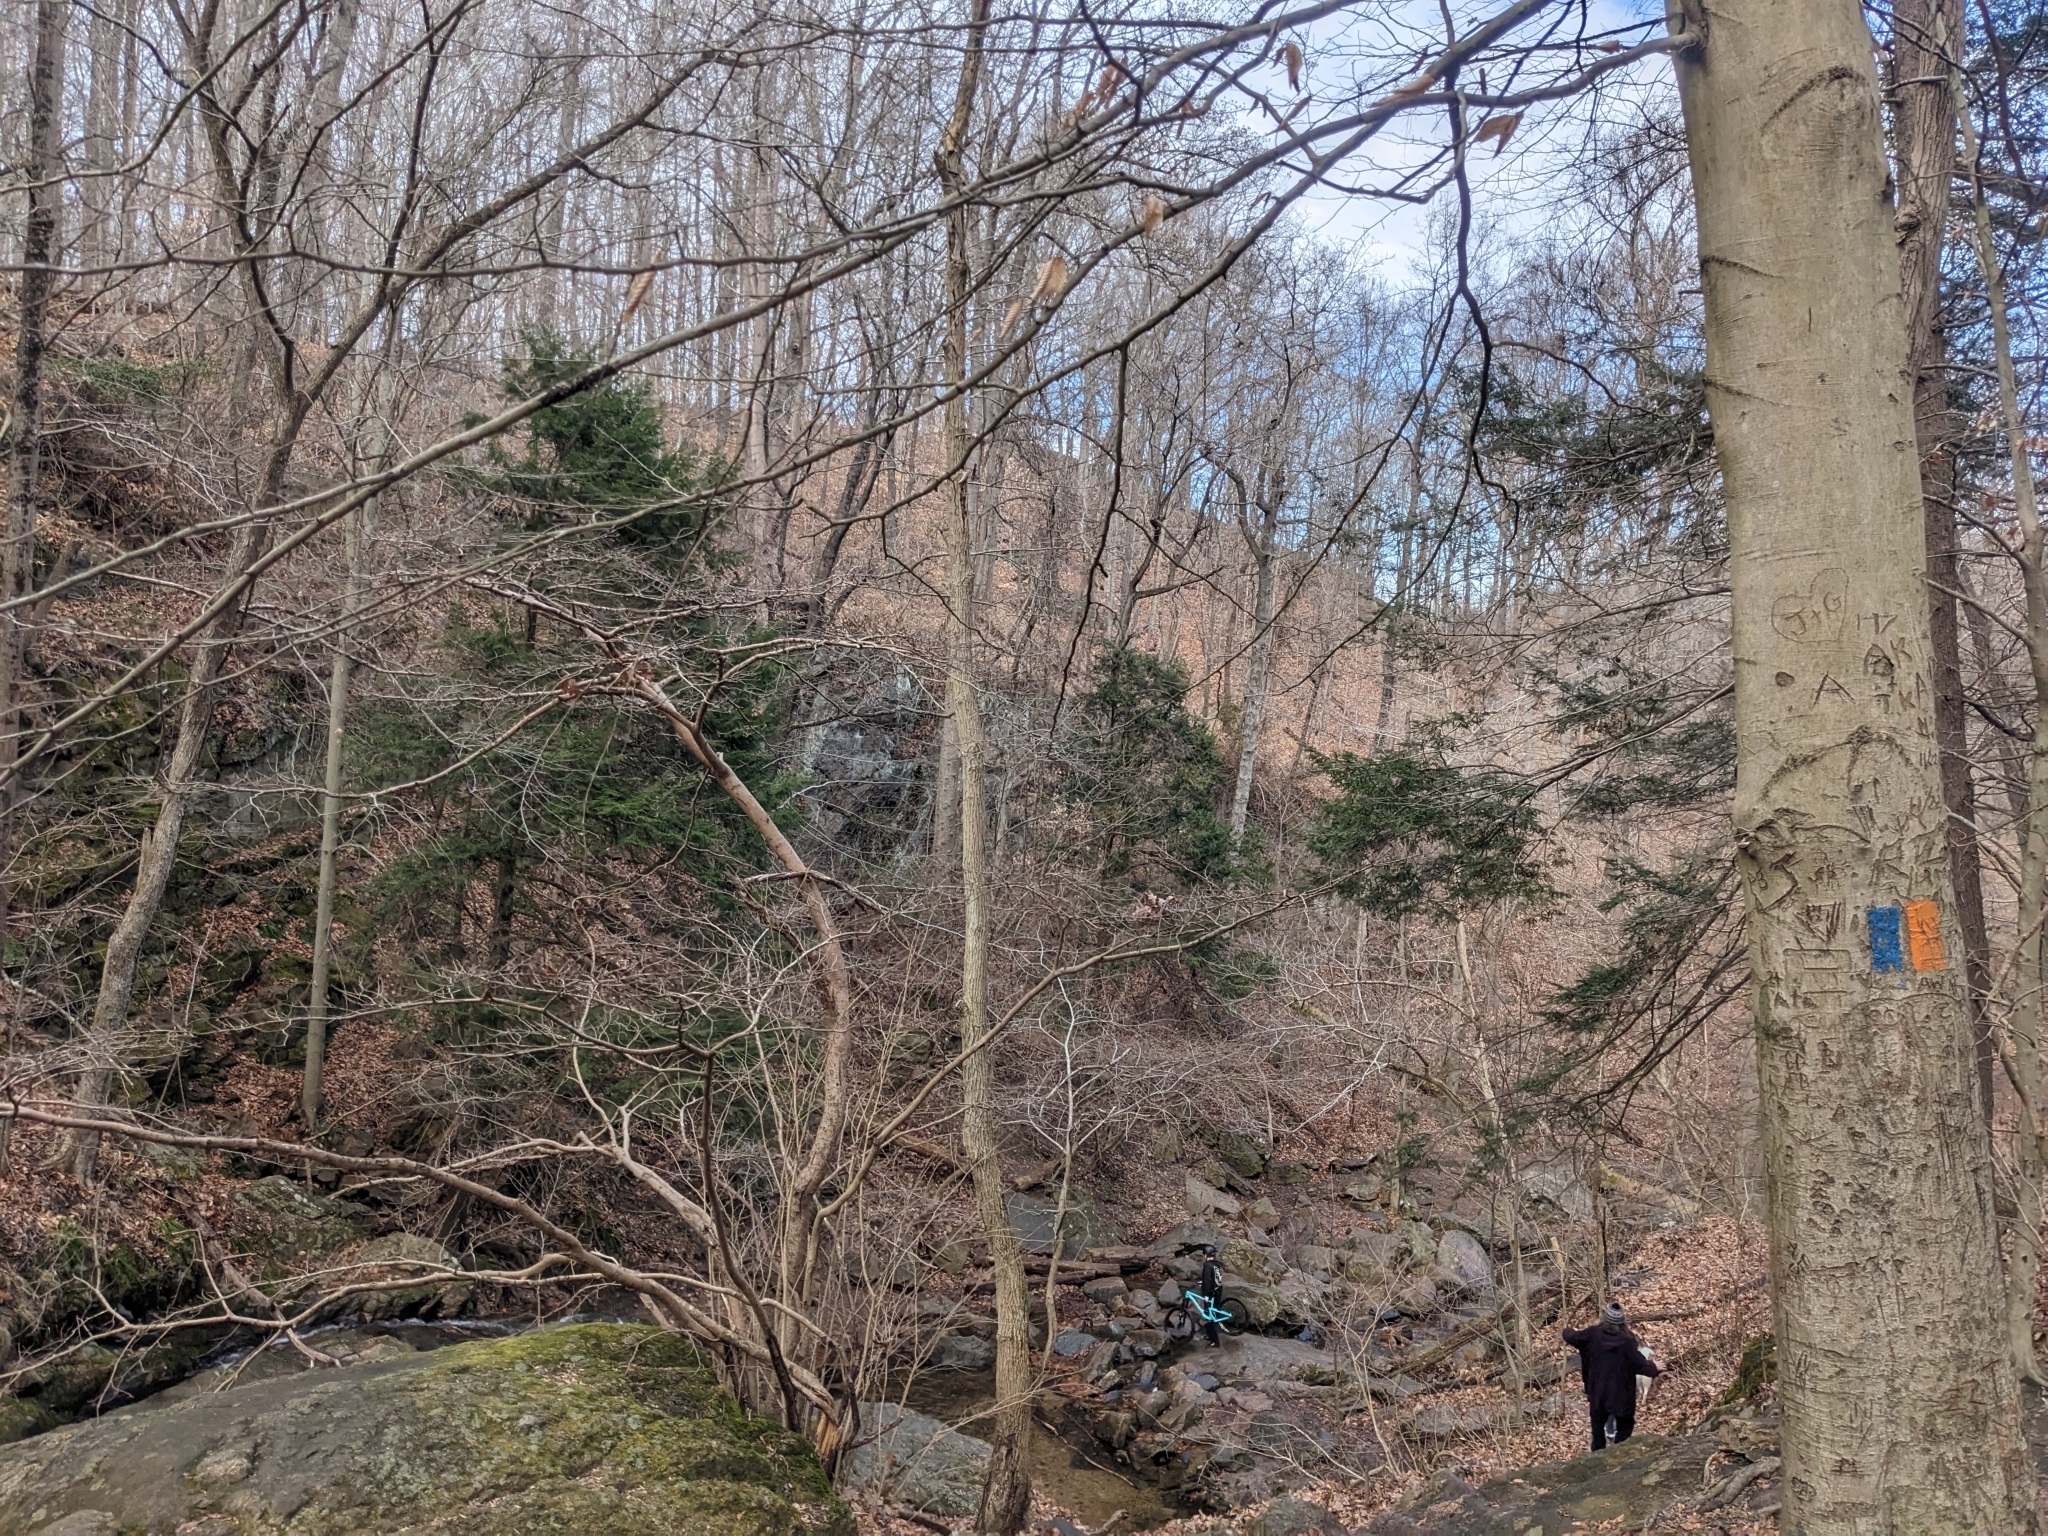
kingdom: Plantae
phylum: Tracheophyta
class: Pinopsida
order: Pinales
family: Pinaceae
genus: Tsuga
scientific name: Tsuga canadensis
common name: Eastern hemlock
